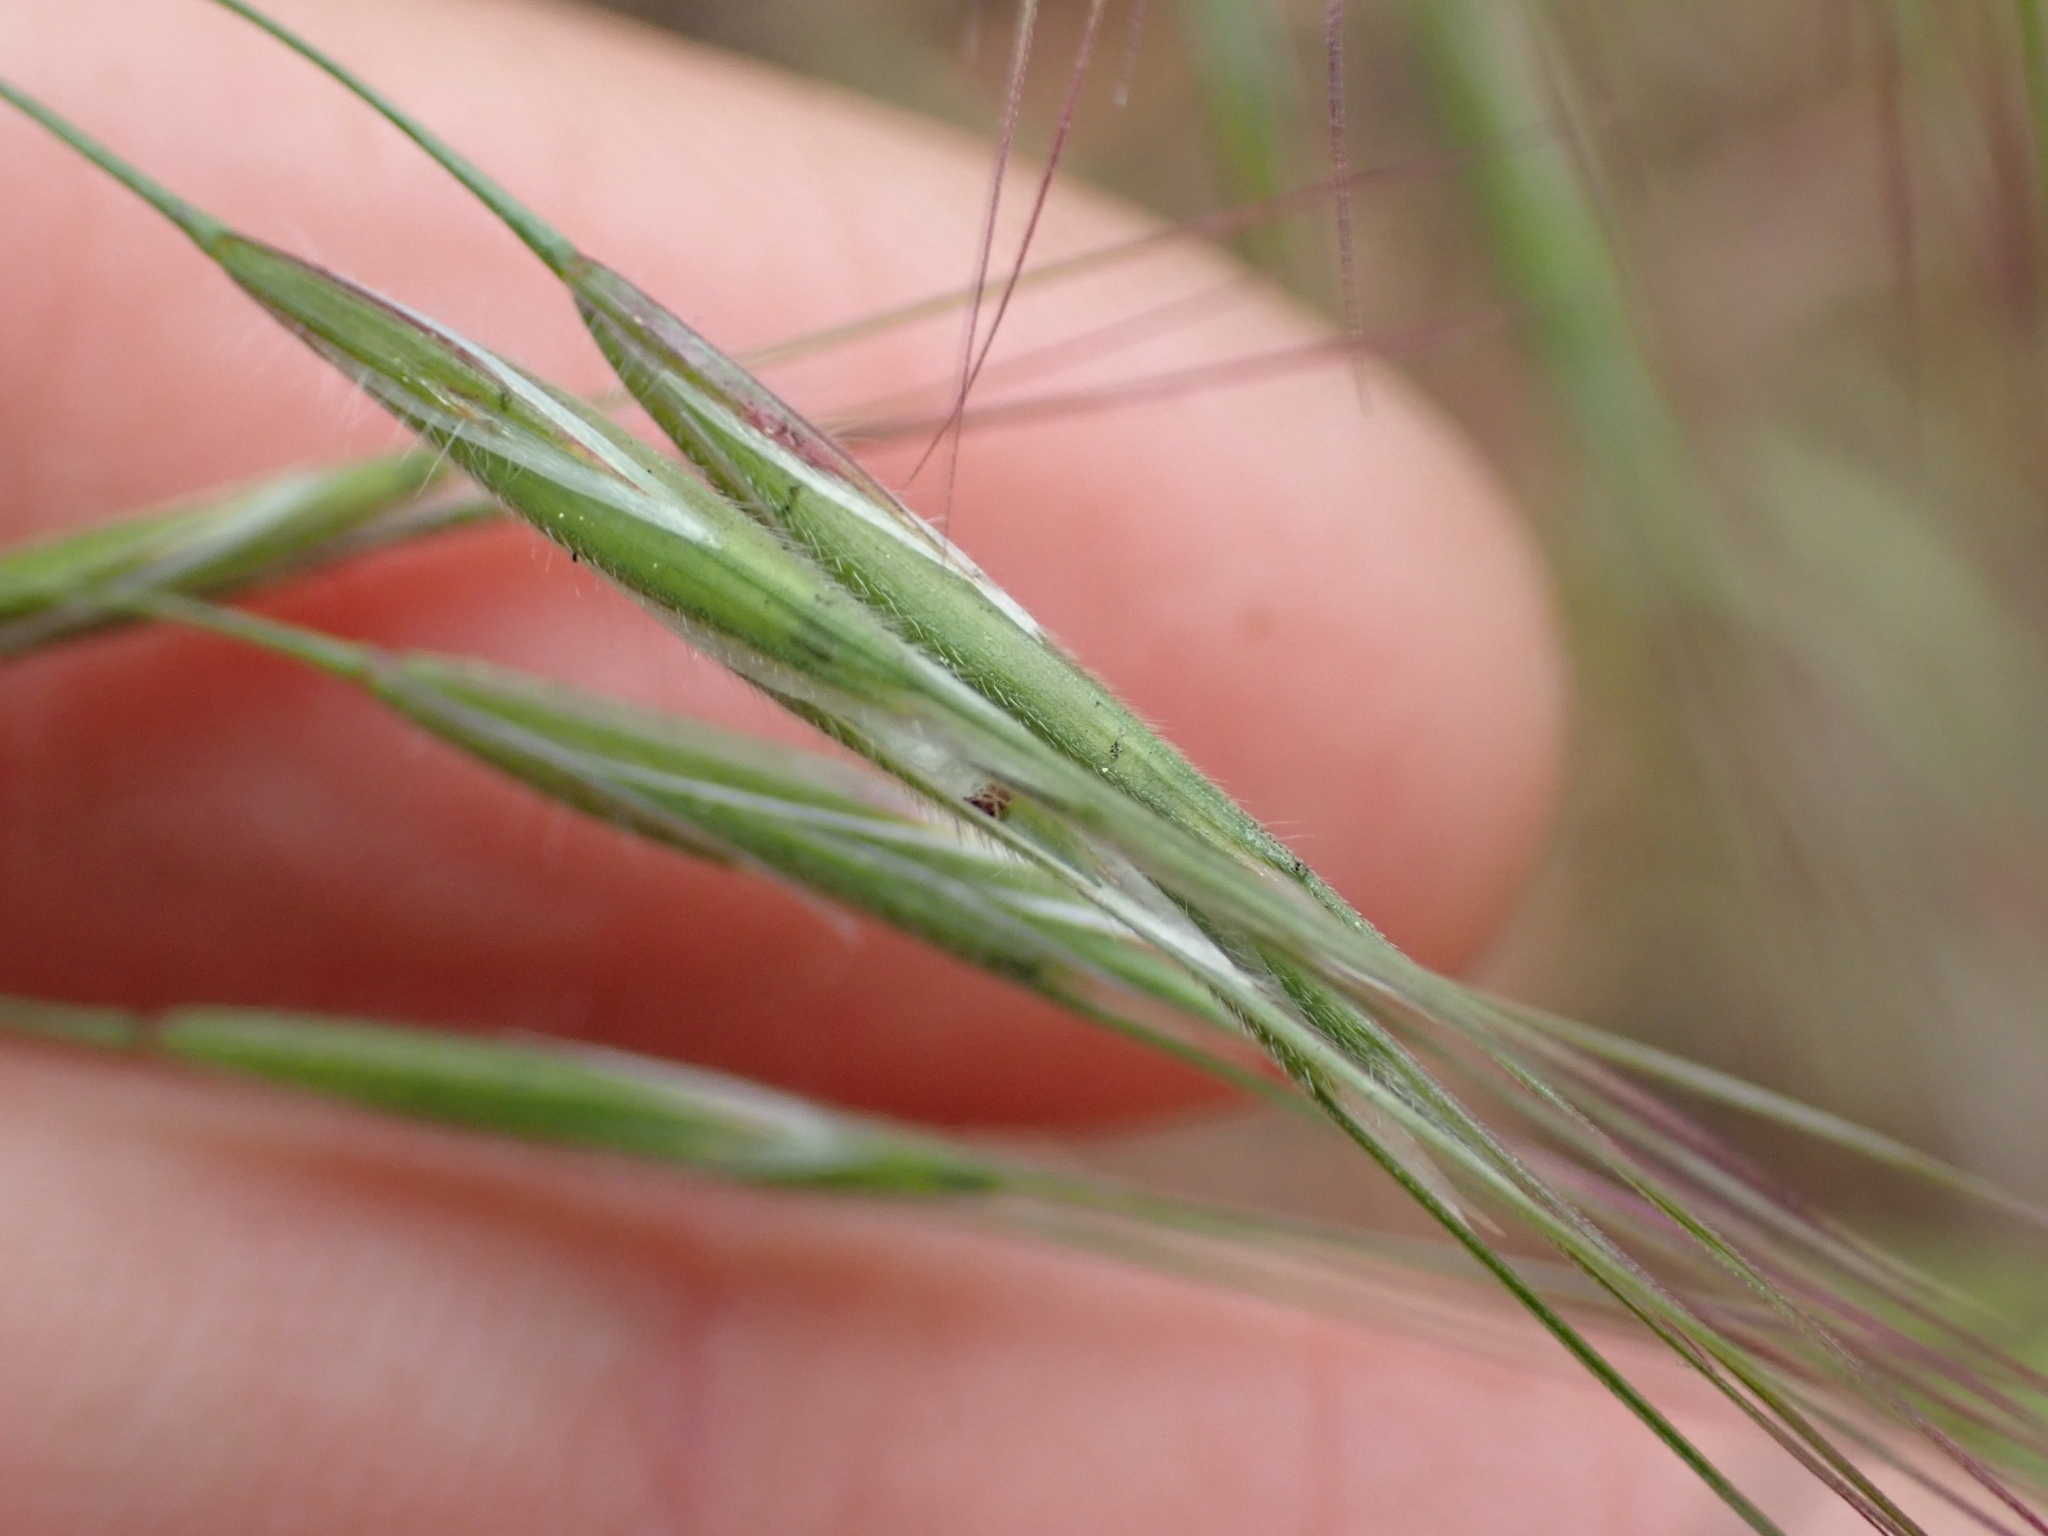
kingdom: Plantae
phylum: Tracheophyta
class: Liliopsida
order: Poales
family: Poaceae
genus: Bromus
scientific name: Bromus tectorum
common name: Cheatgrass
